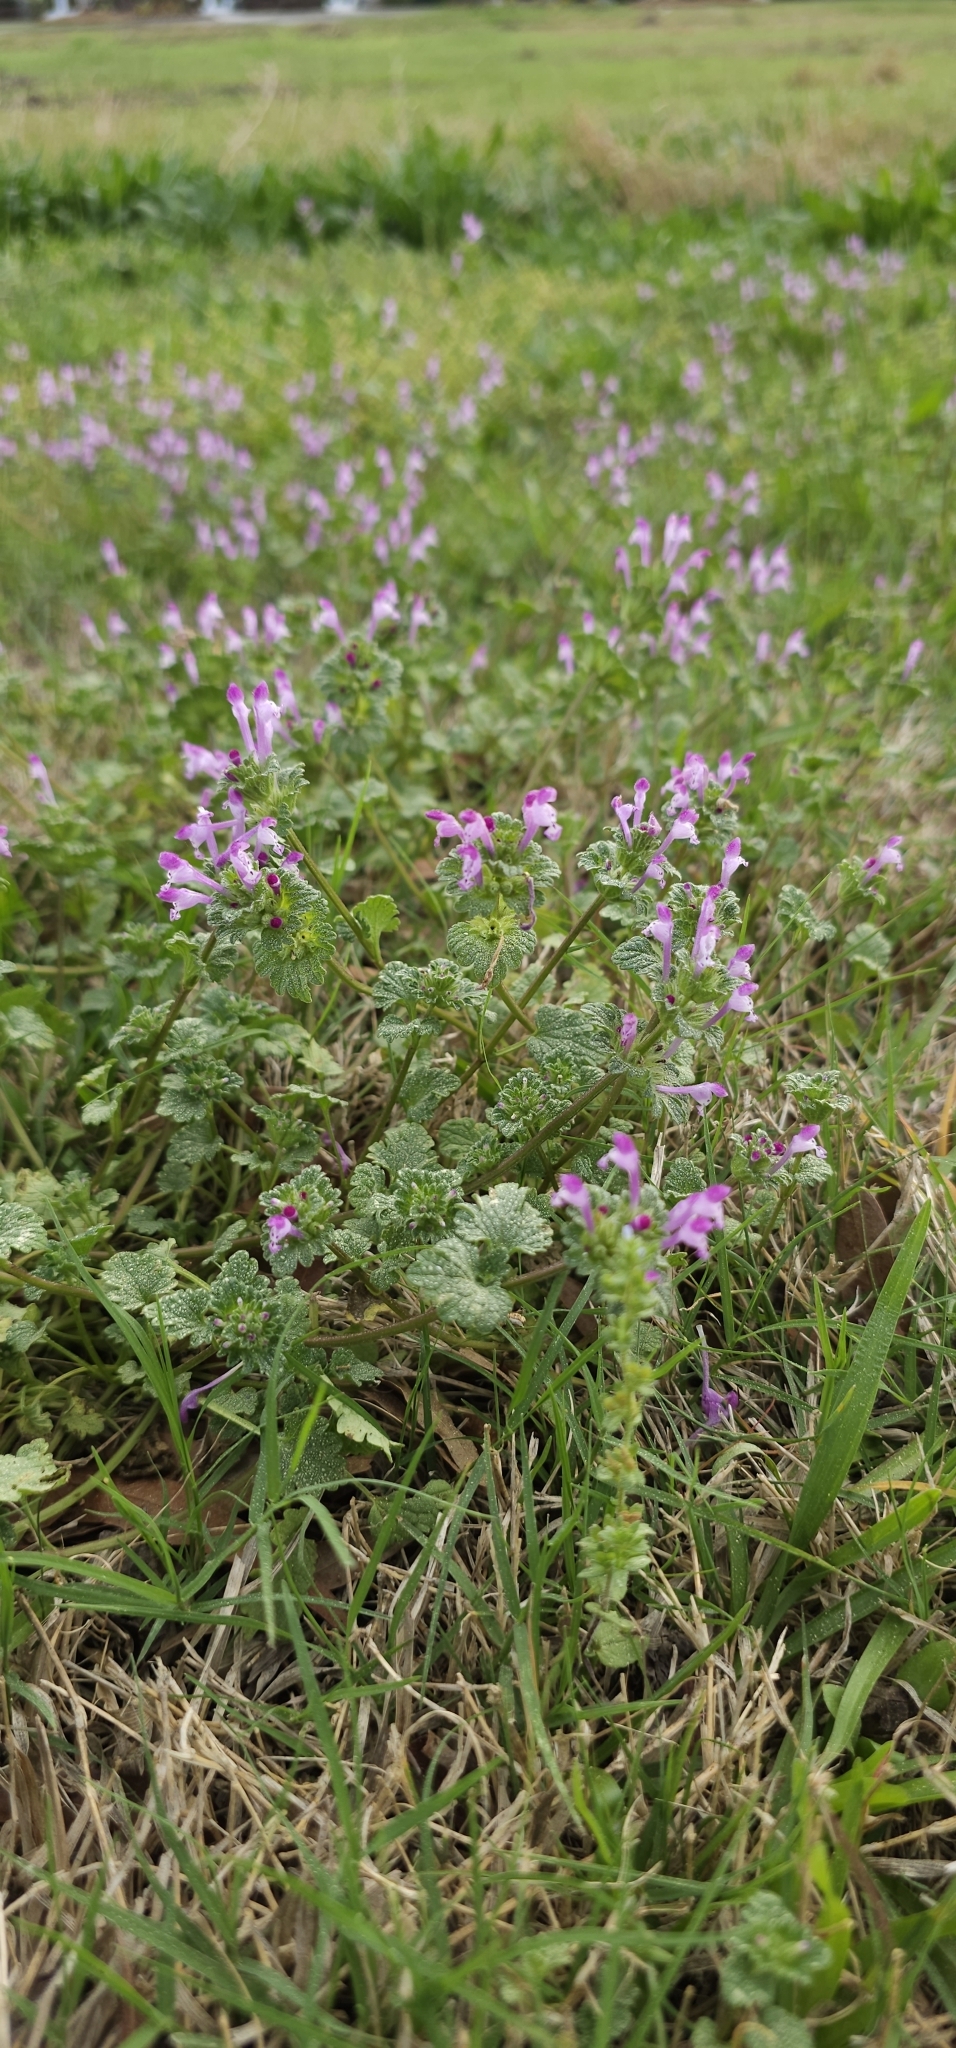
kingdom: Plantae
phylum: Tracheophyta
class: Magnoliopsida
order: Lamiales
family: Lamiaceae
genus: Lamium
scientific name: Lamium amplexicaule
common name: Henbit dead-nettle
